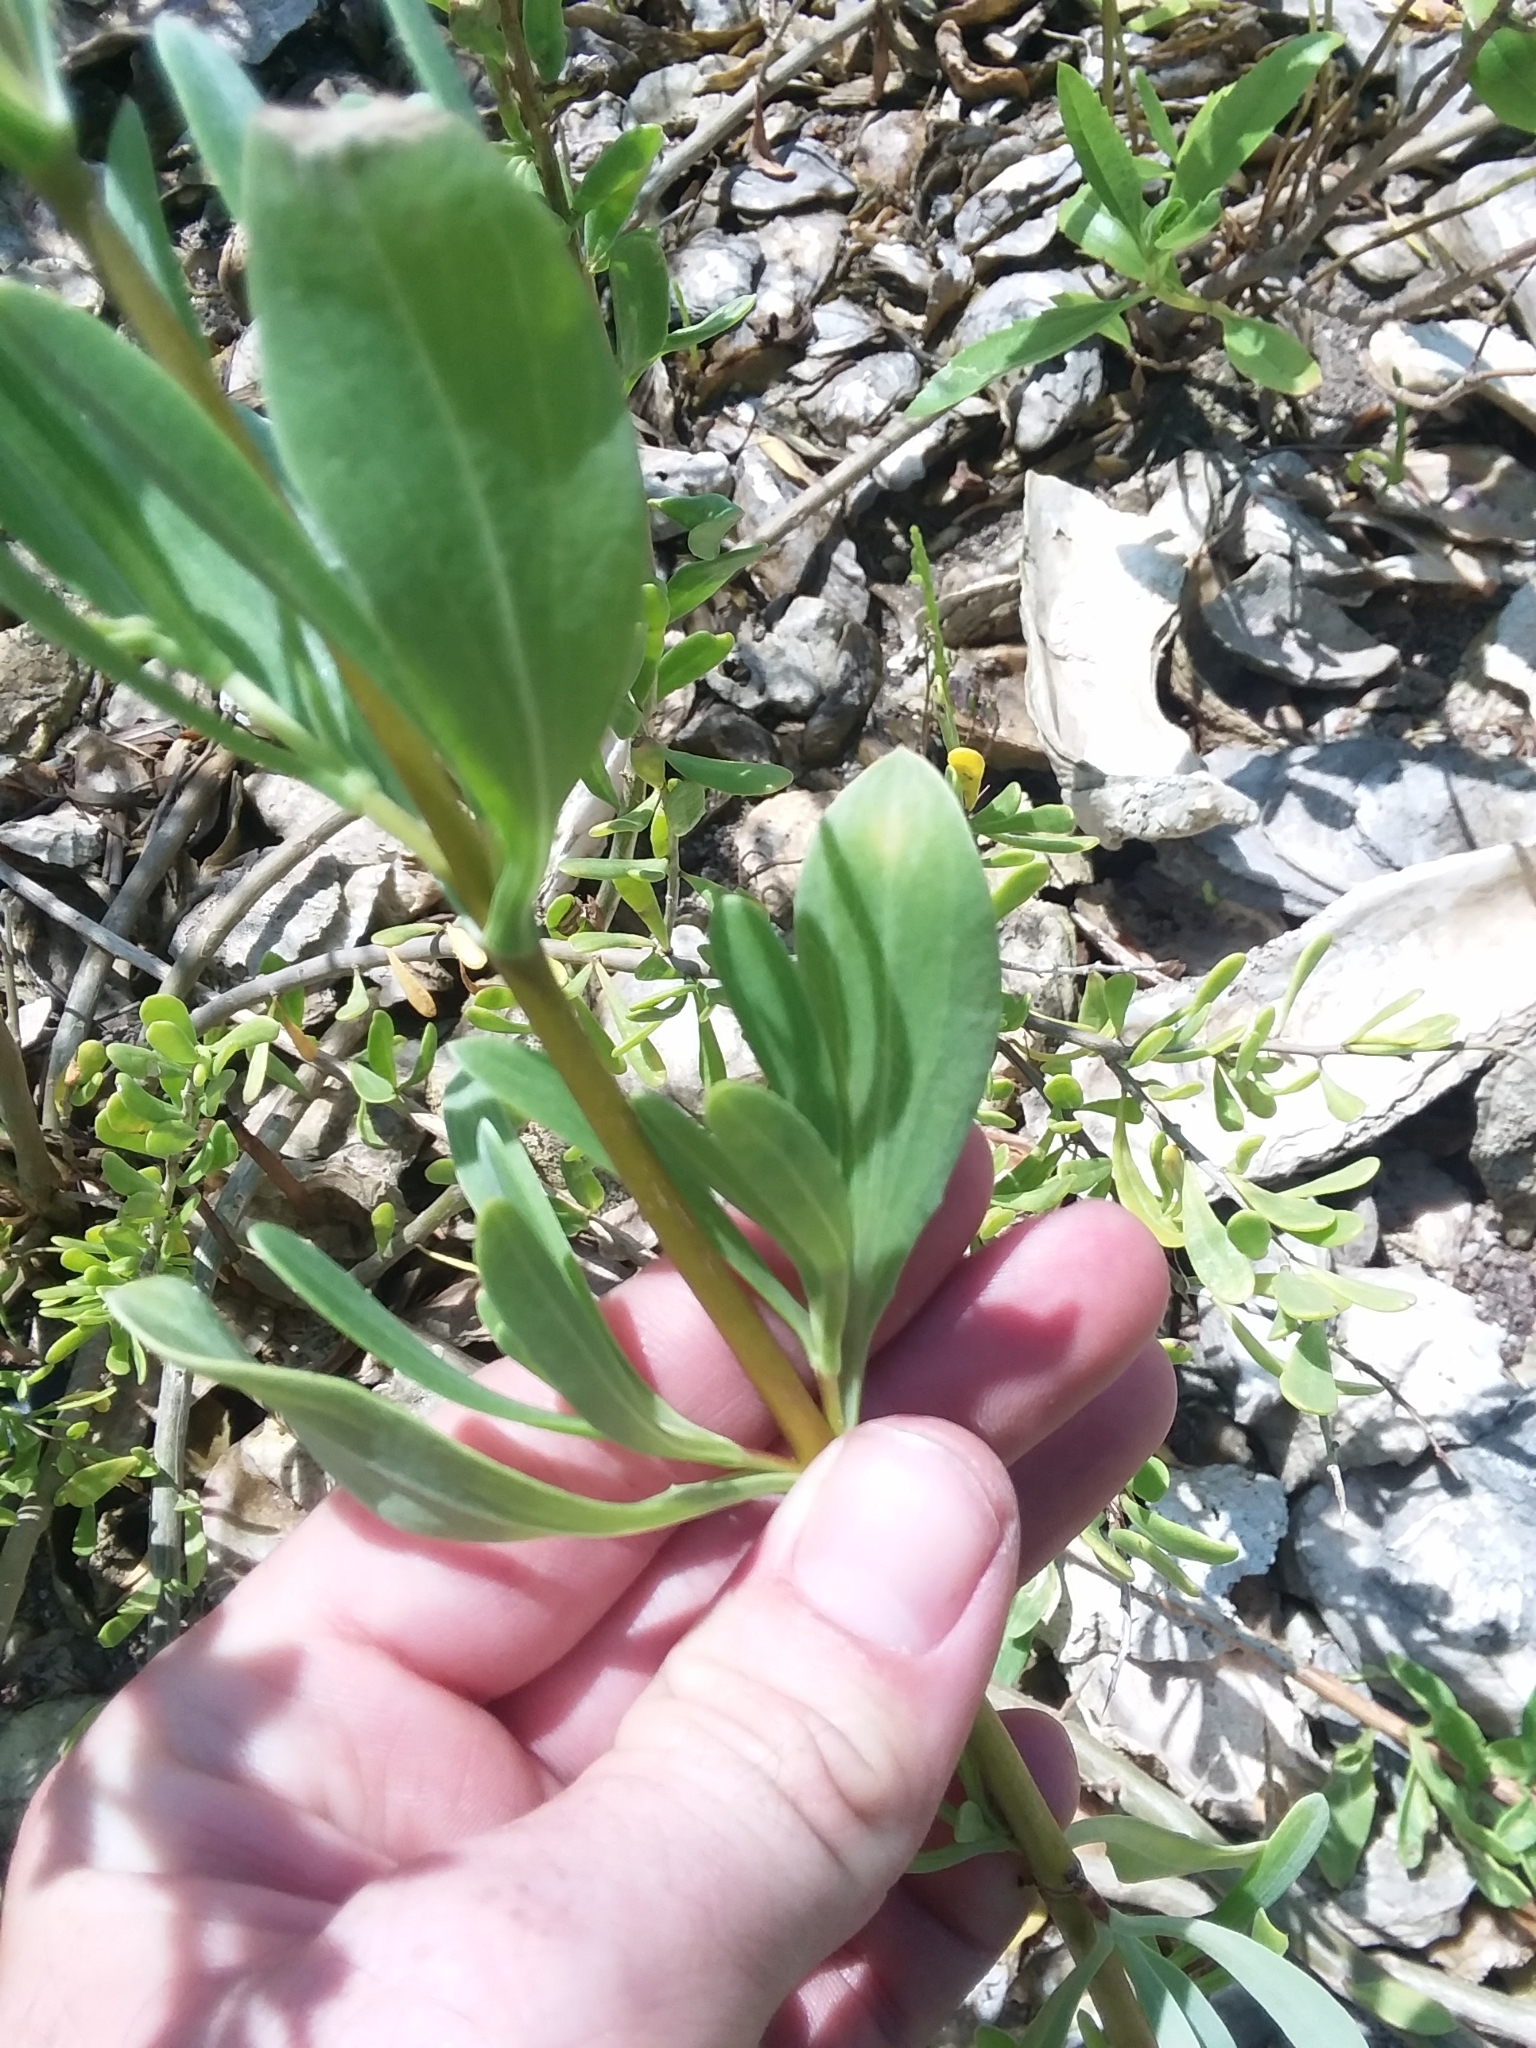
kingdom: Plantae
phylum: Tracheophyta
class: Magnoliopsida
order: Asterales
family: Asteraceae
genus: Borrichia
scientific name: Borrichia frutescens
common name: Sea oxeye
